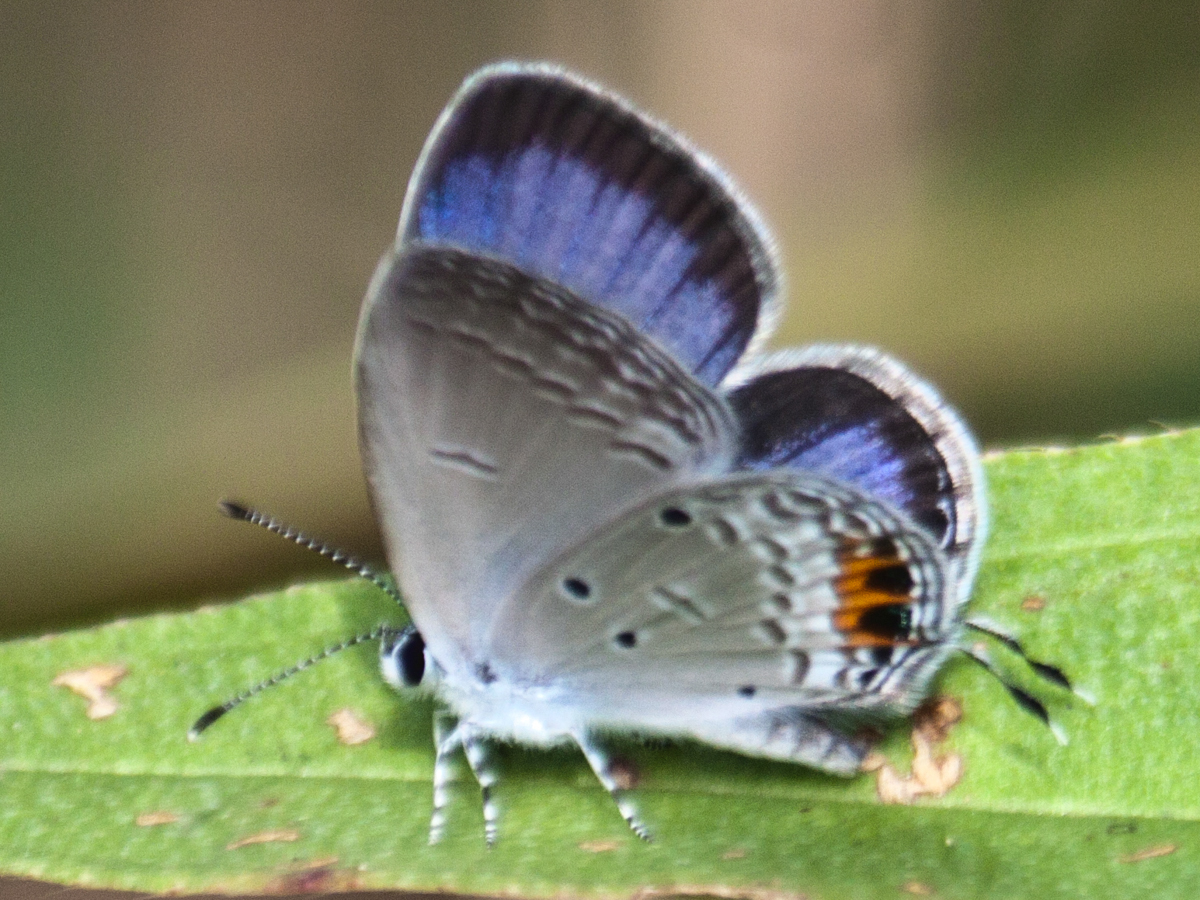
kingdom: Animalia
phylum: Arthropoda
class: Insecta
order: Lepidoptera
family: Lycaenidae
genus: Everes
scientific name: Everes lacturnus
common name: Orange-tipped pea-blue
